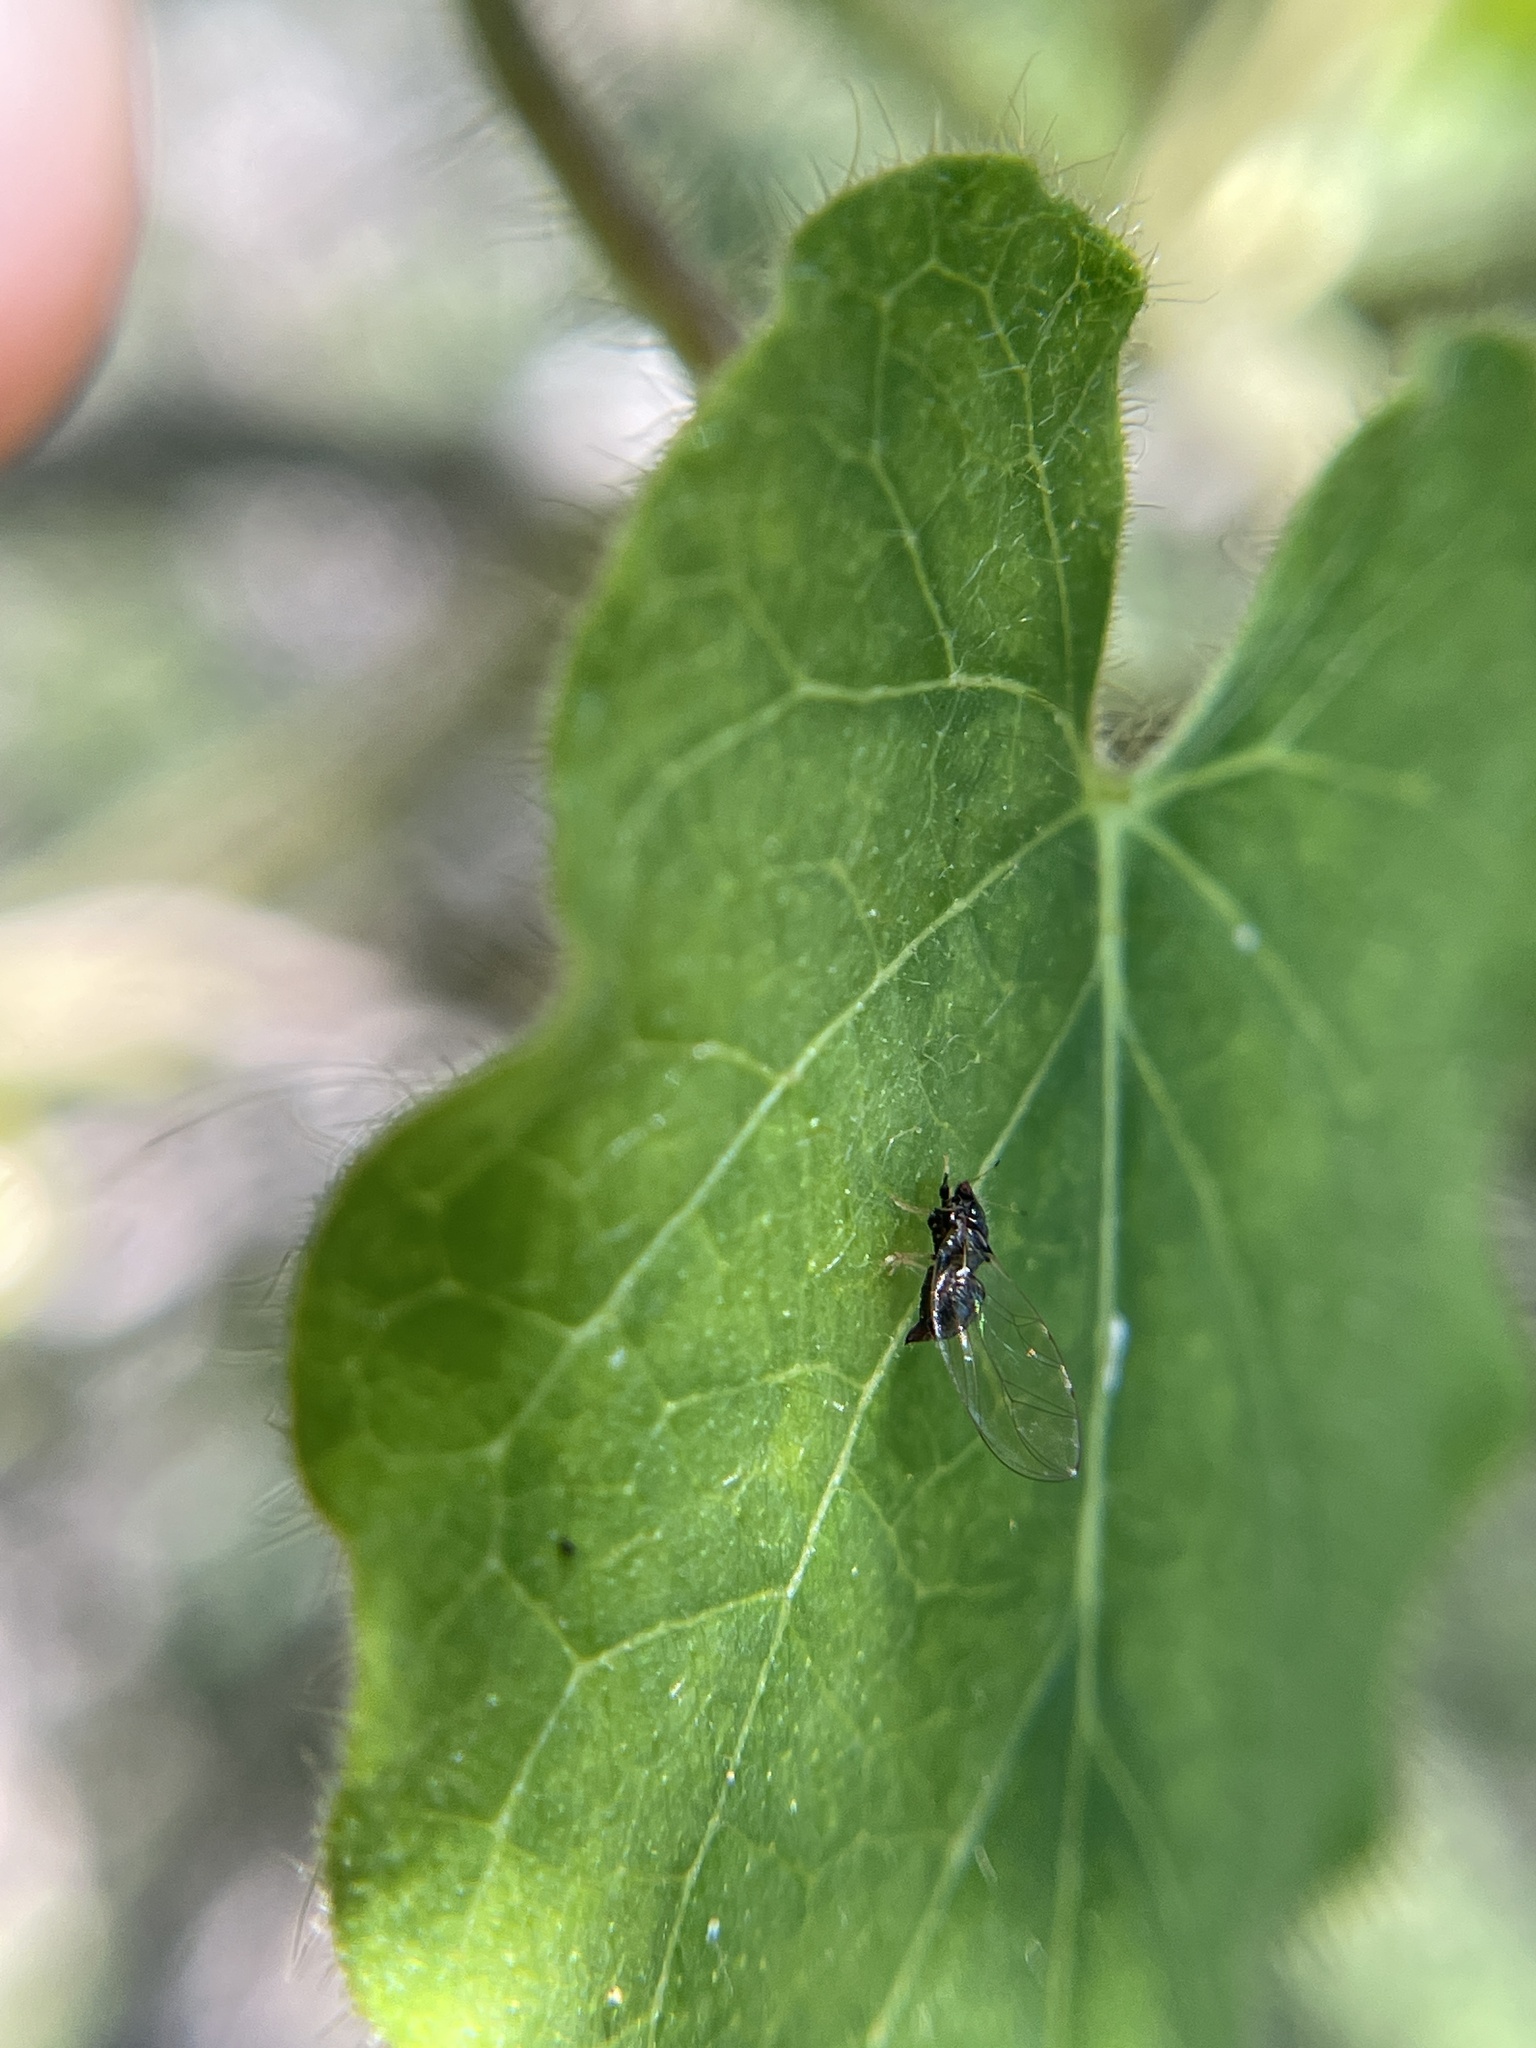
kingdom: Animalia
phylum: Arthropoda
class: Insecta
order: Hemiptera
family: Triozidae
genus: Baeoalitriozus
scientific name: Baeoalitriozus diospyri
